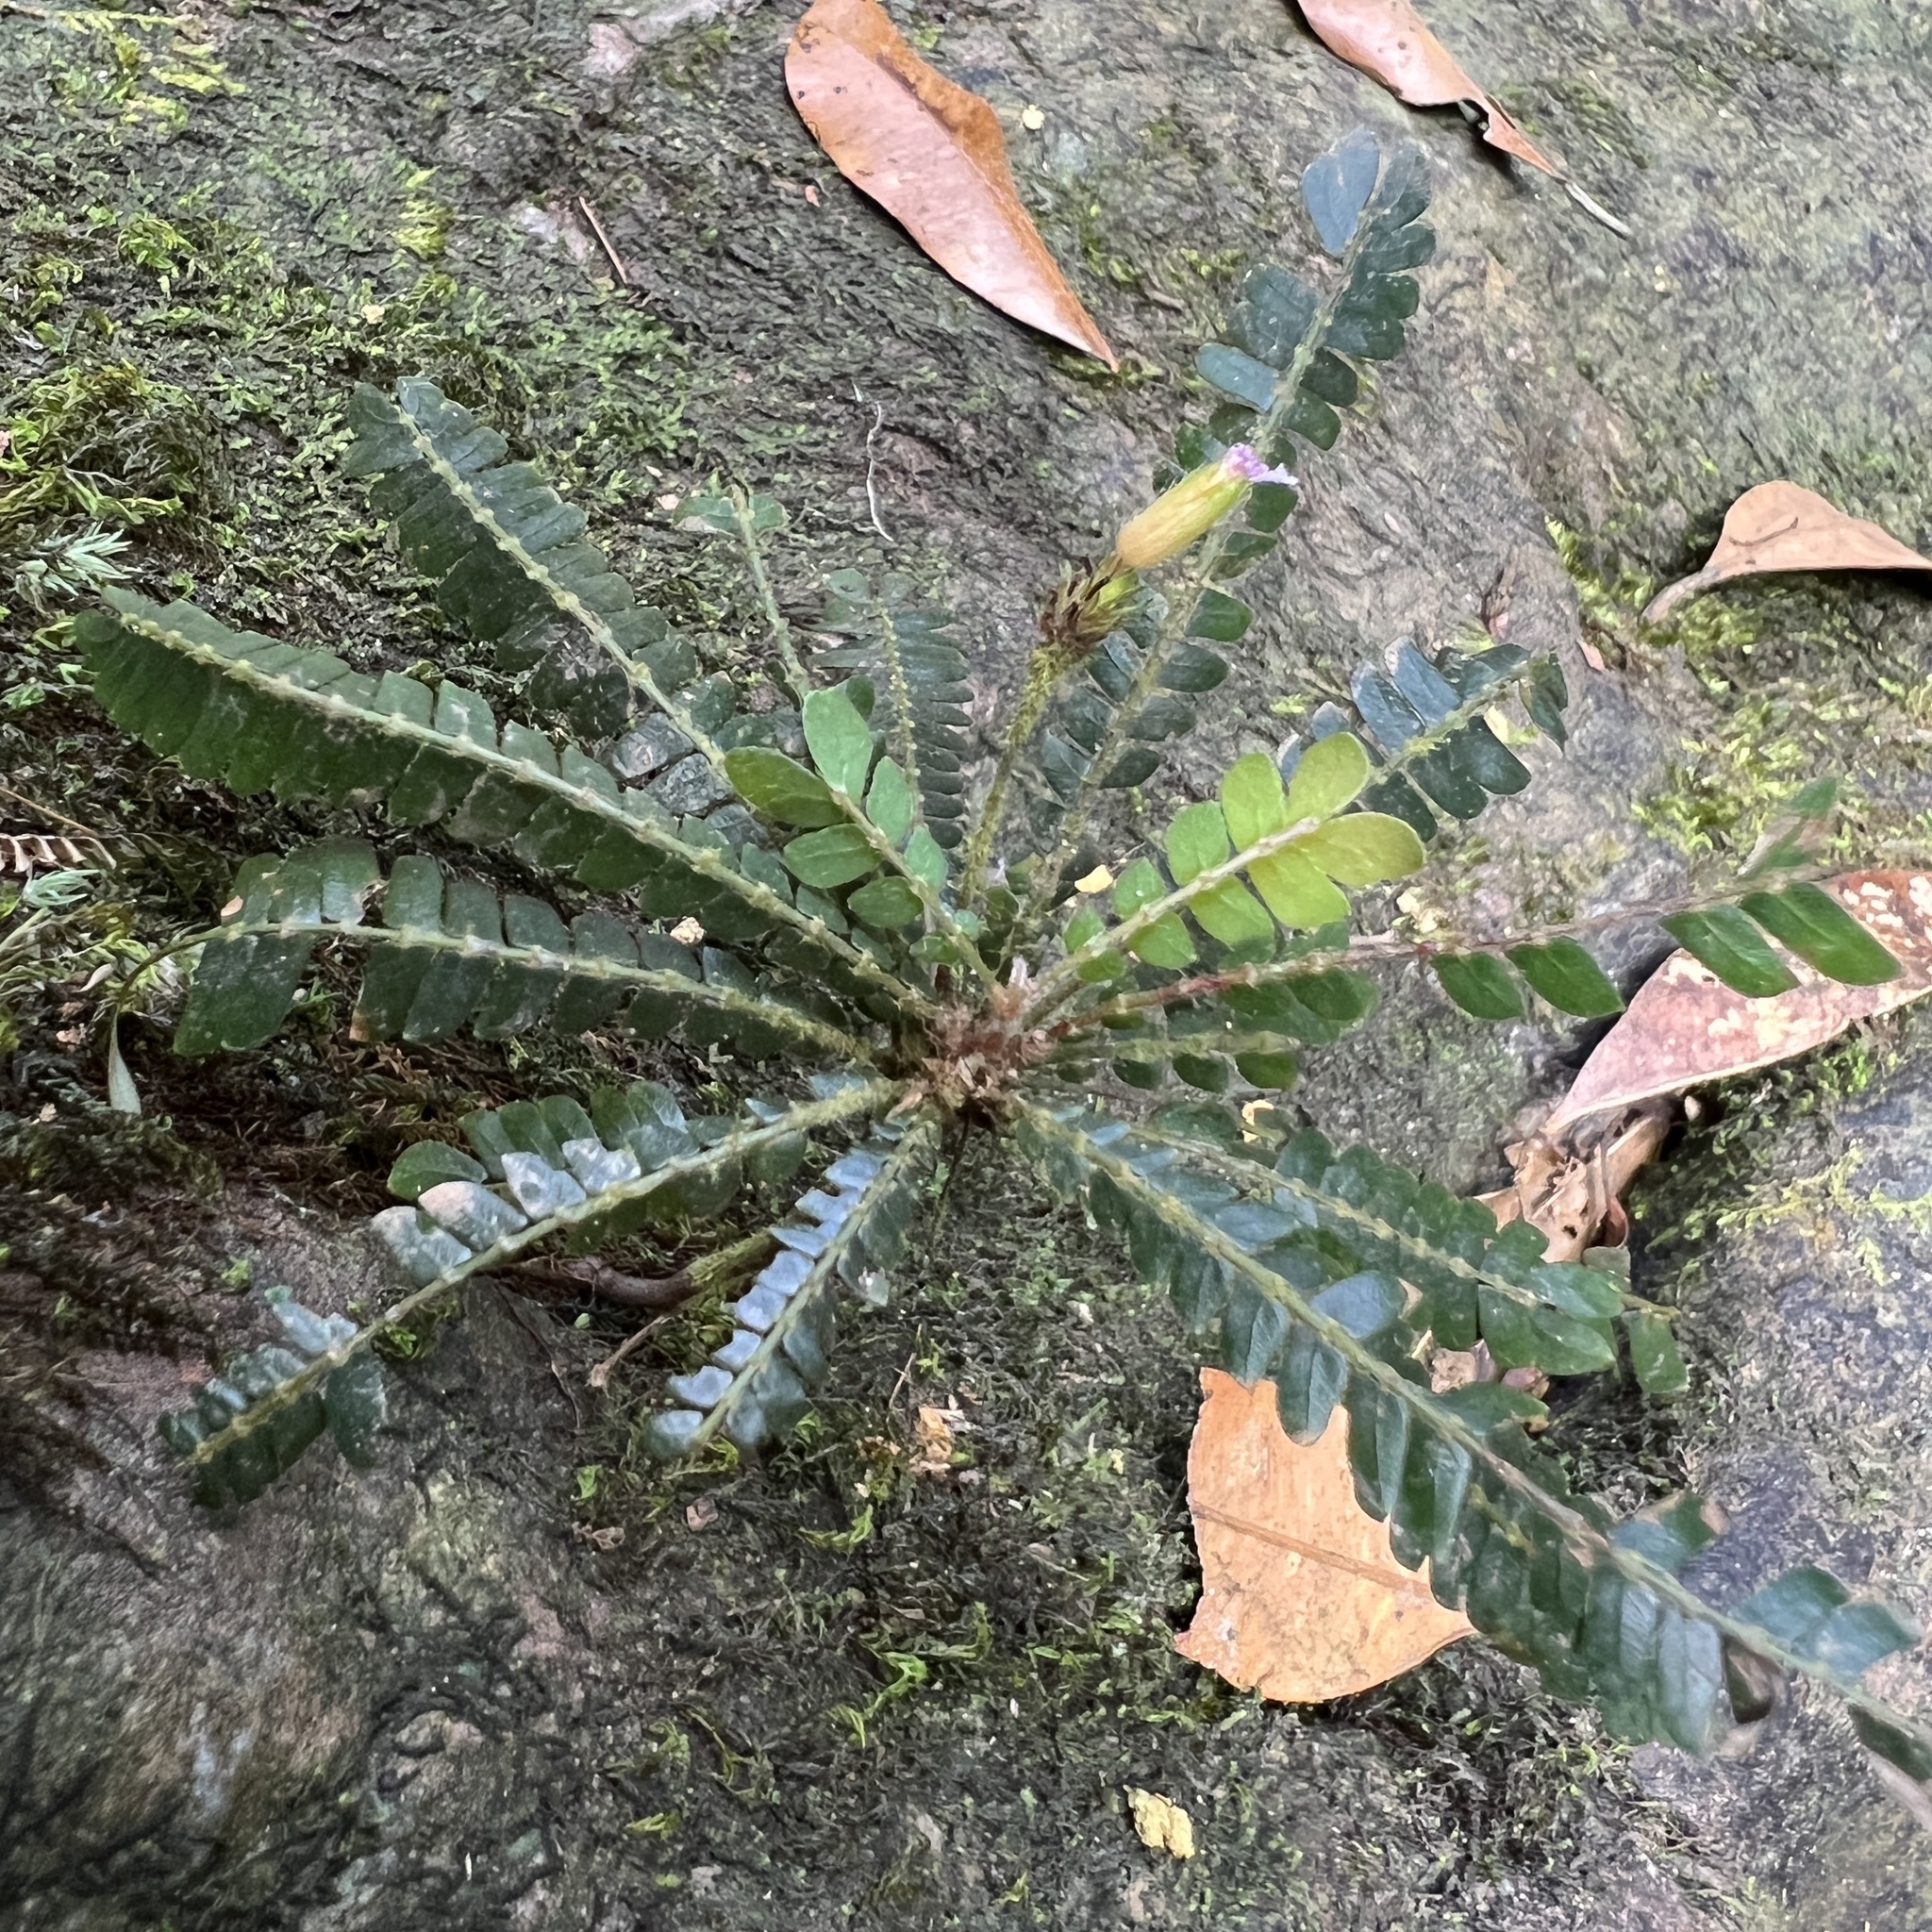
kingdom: Plantae
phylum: Tracheophyta
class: Magnoliopsida
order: Oxalidales
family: Oxalidaceae
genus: Biophytum
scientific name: Biophytum dendroides
